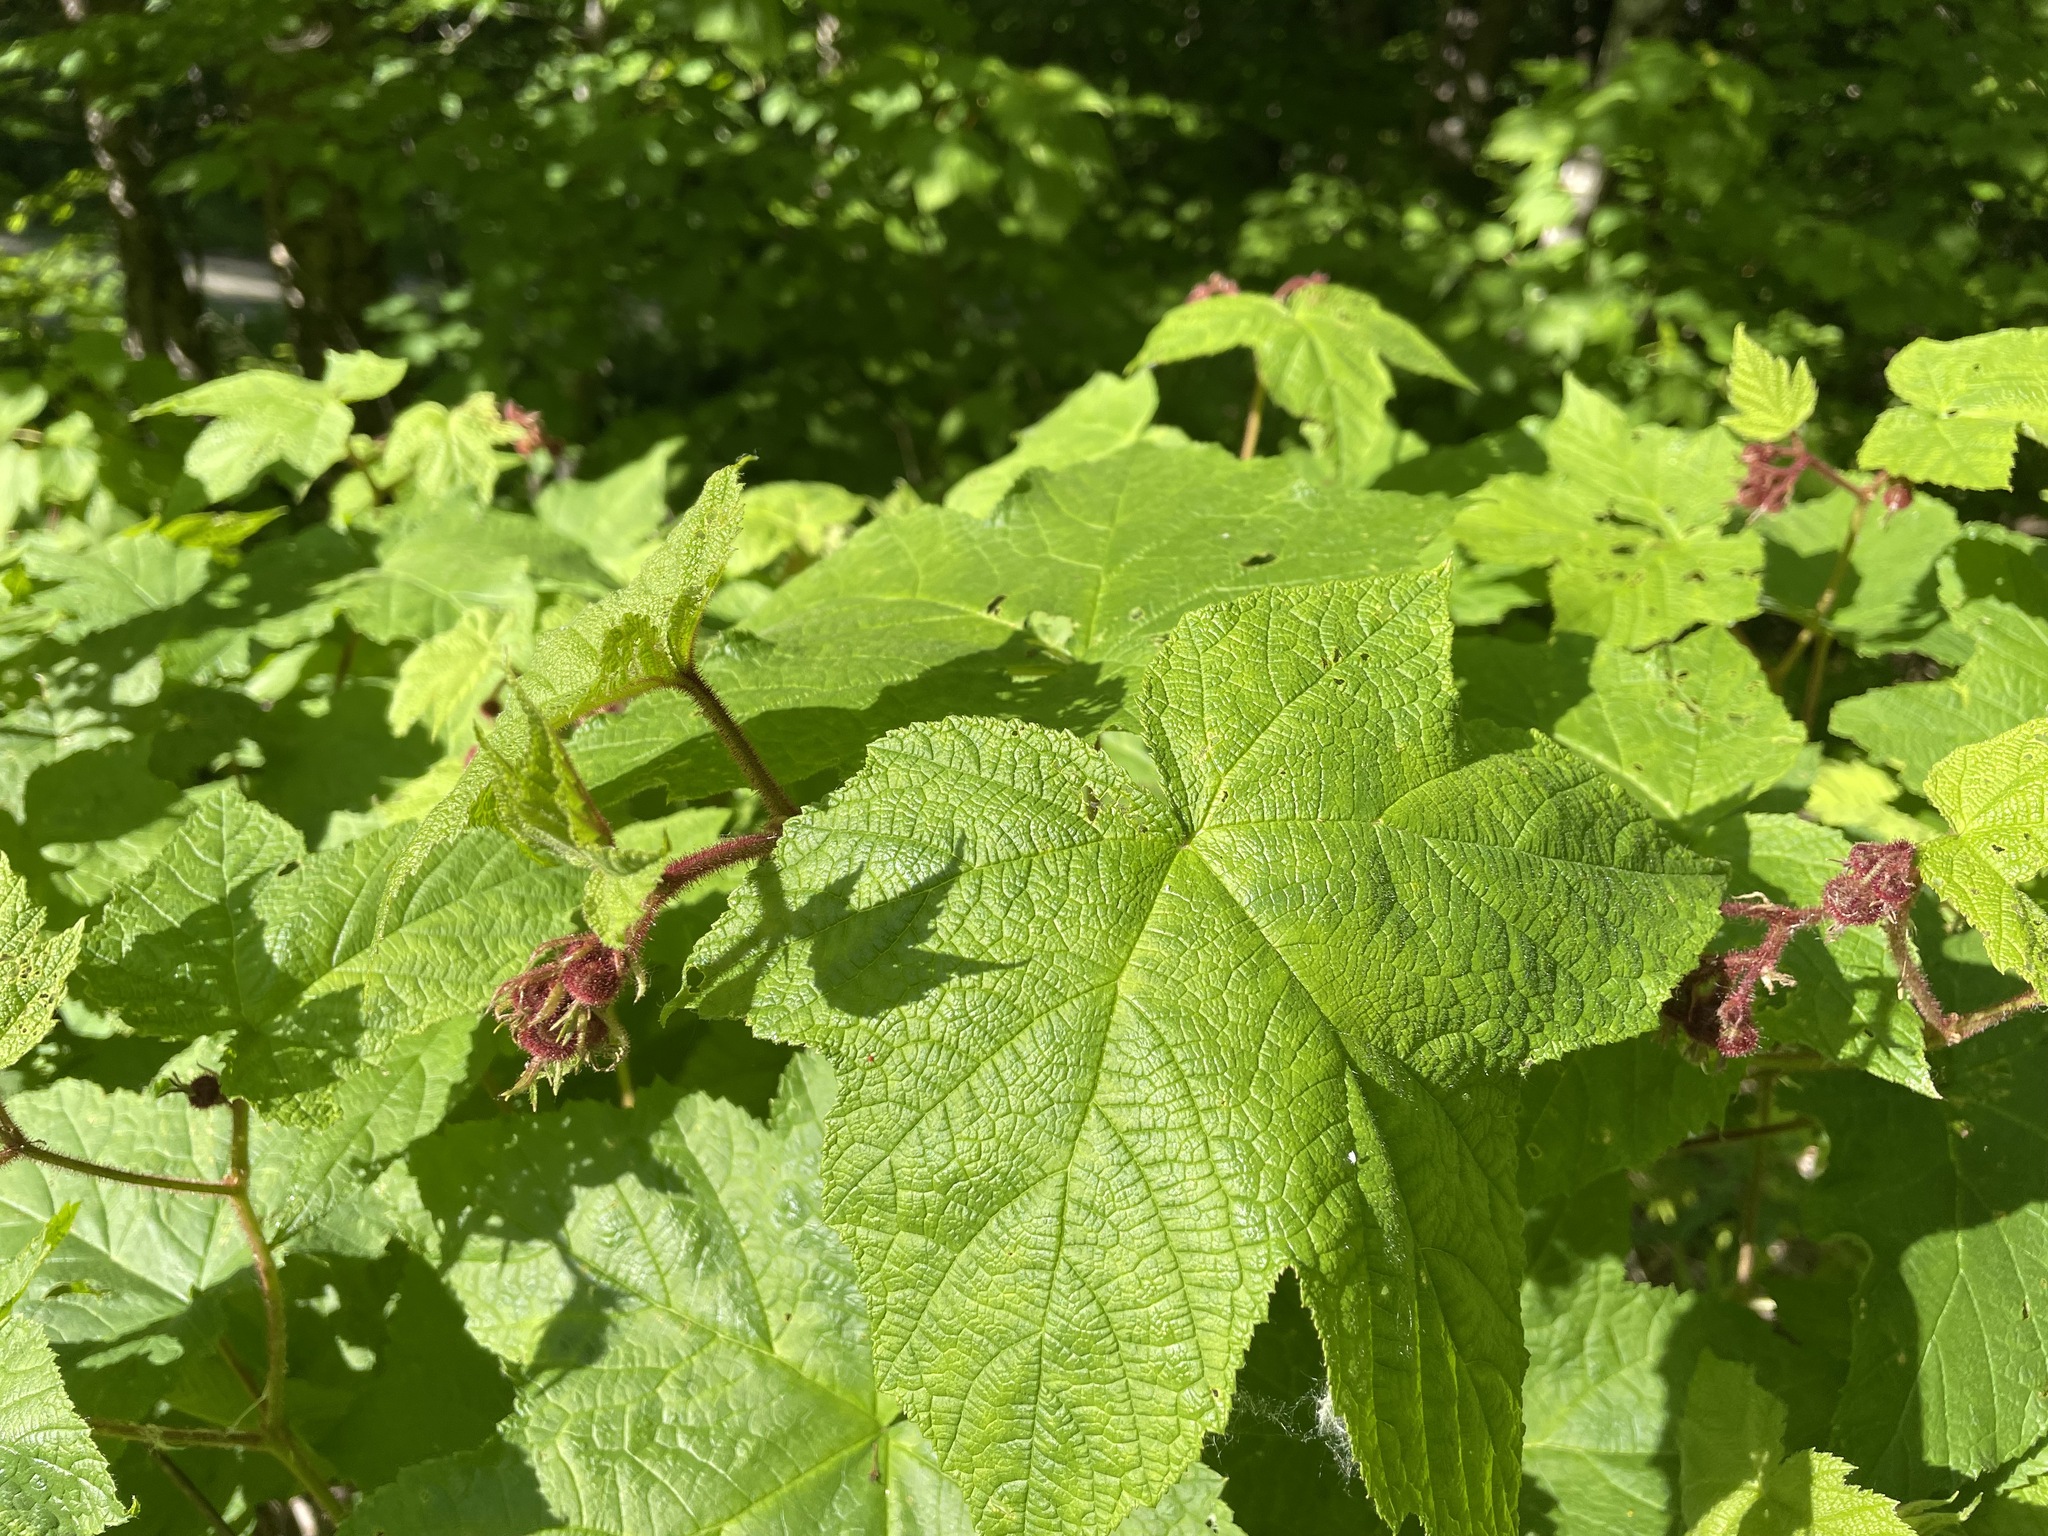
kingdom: Plantae
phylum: Tracheophyta
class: Magnoliopsida
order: Rosales
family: Rosaceae
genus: Rubus
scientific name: Rubus odoratus
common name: Purple-flowered raspberry
